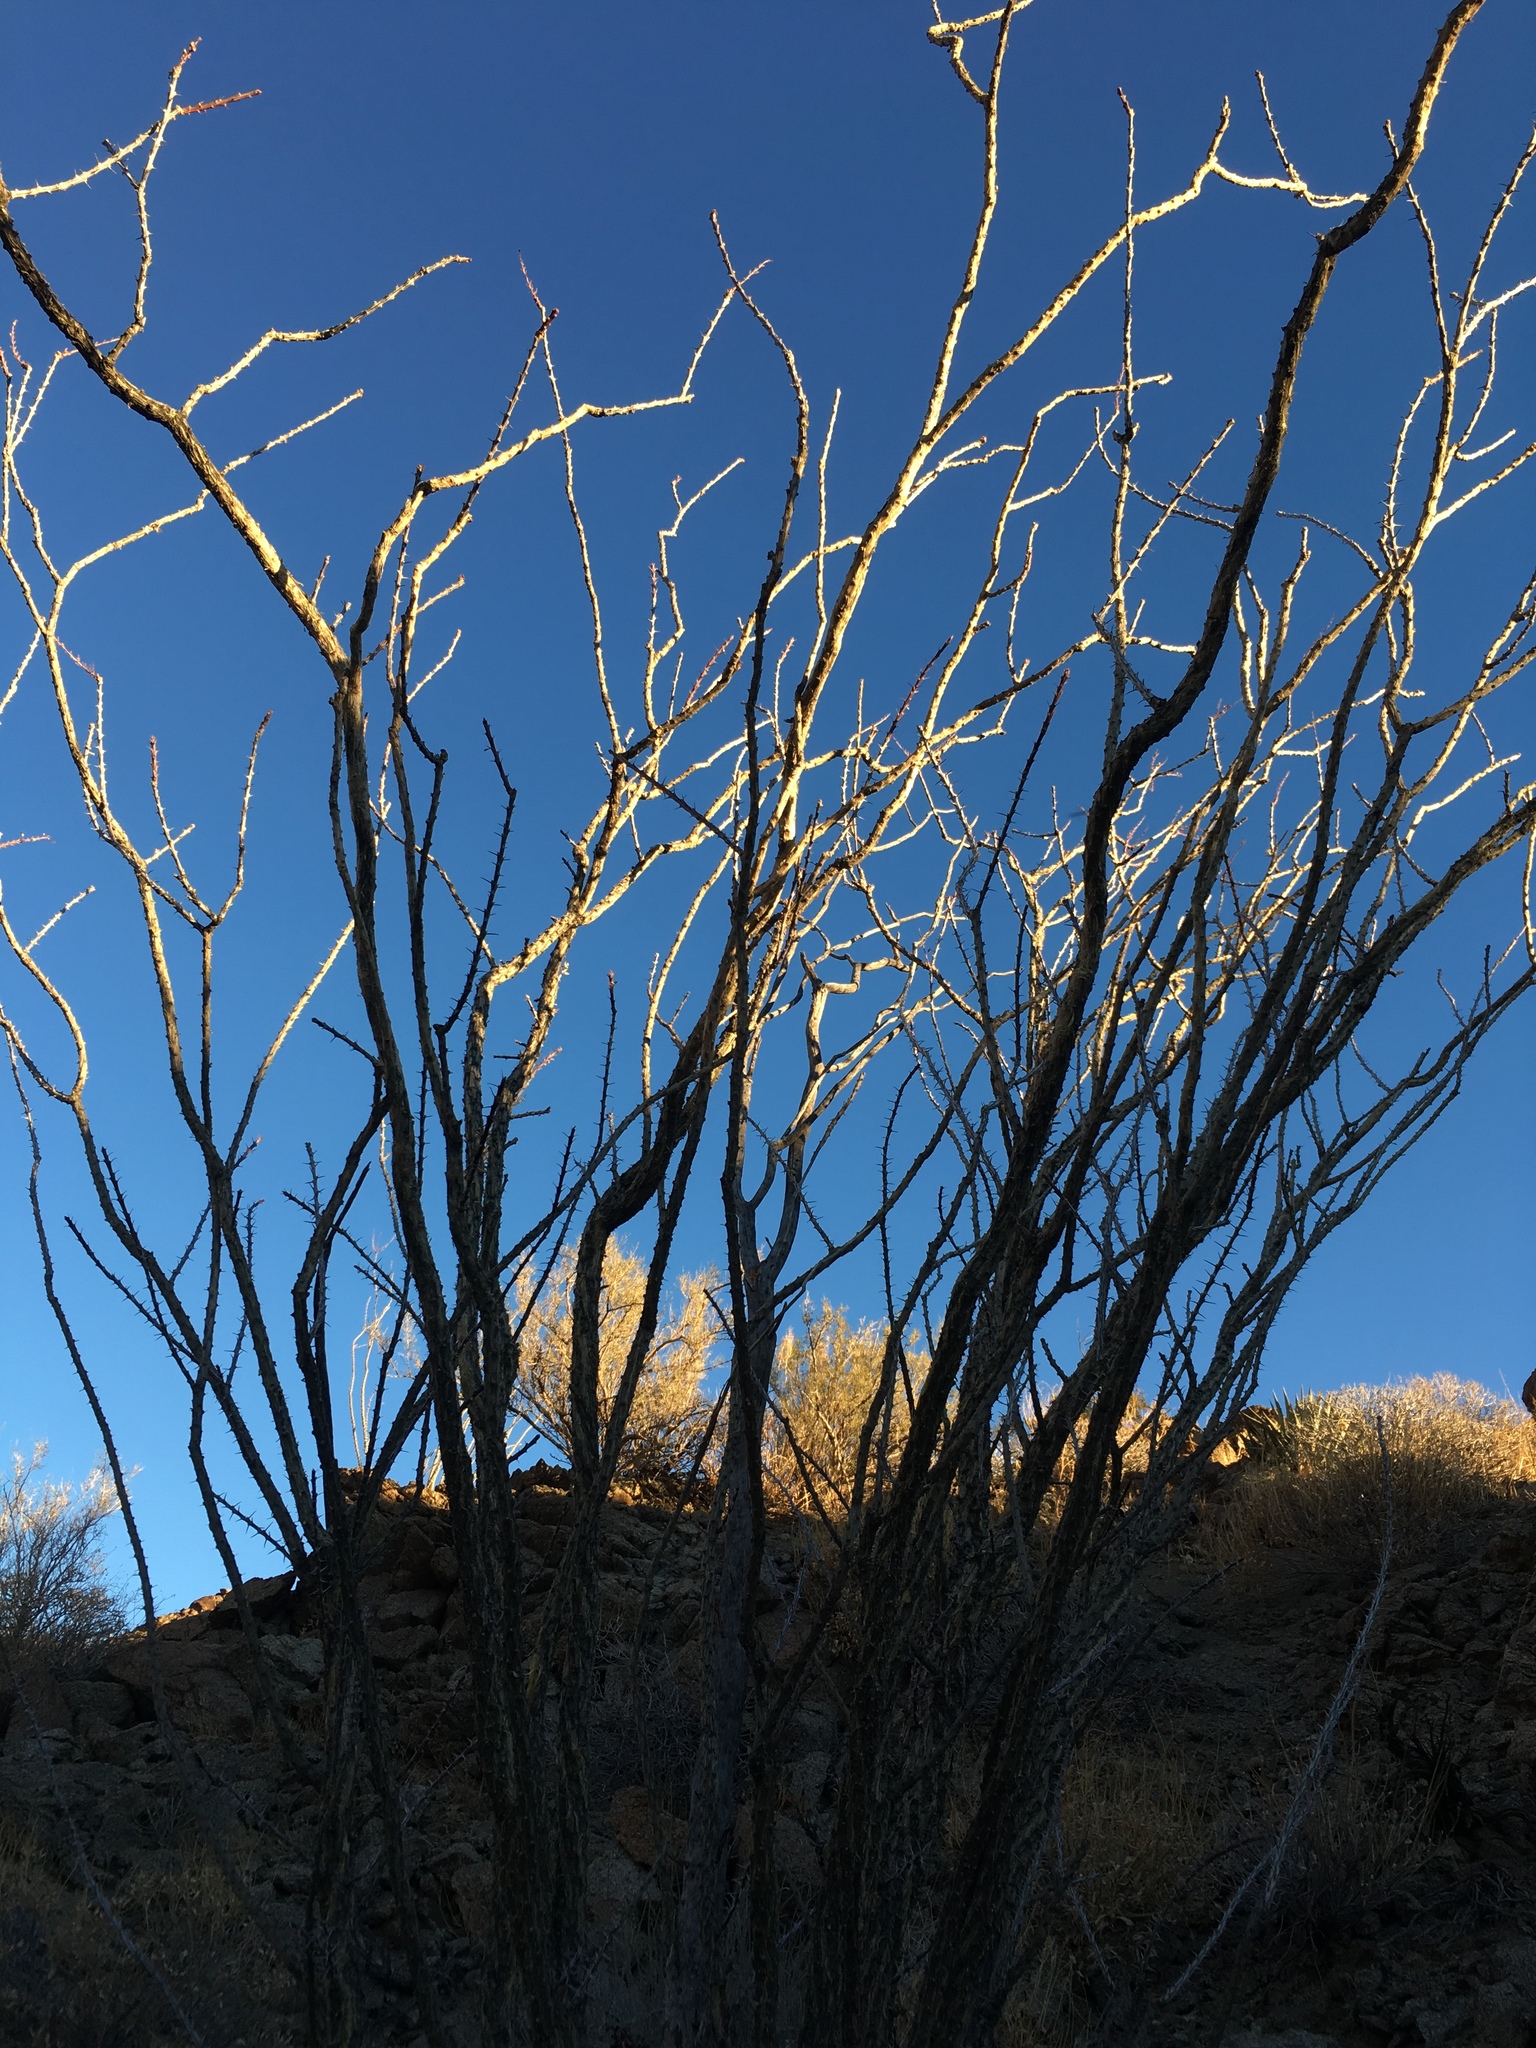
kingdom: Plantae
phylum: Tracheophyta
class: Magnoliopsida
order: Ericales
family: Fouquieriaceae
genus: Fouquieria
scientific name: Fouquieria splendens
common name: Vine-cactus
